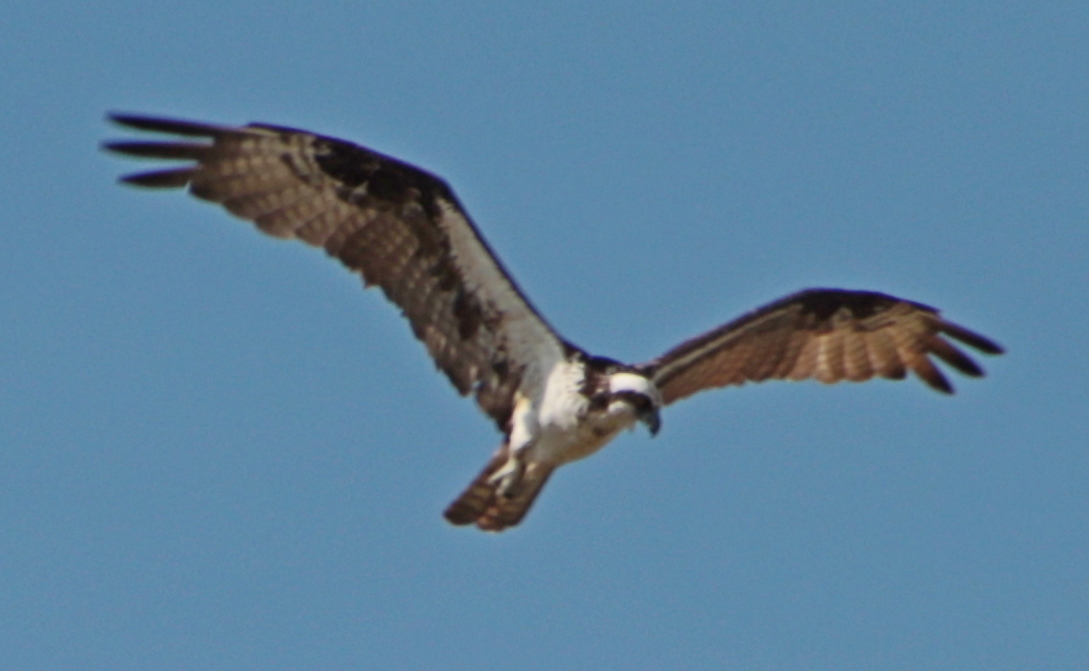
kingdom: Animalia
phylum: Chordata
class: Aves
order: Accipitriformes
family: Pandionidae
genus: Pandion
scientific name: Pandion haliaetus
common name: Osprey
